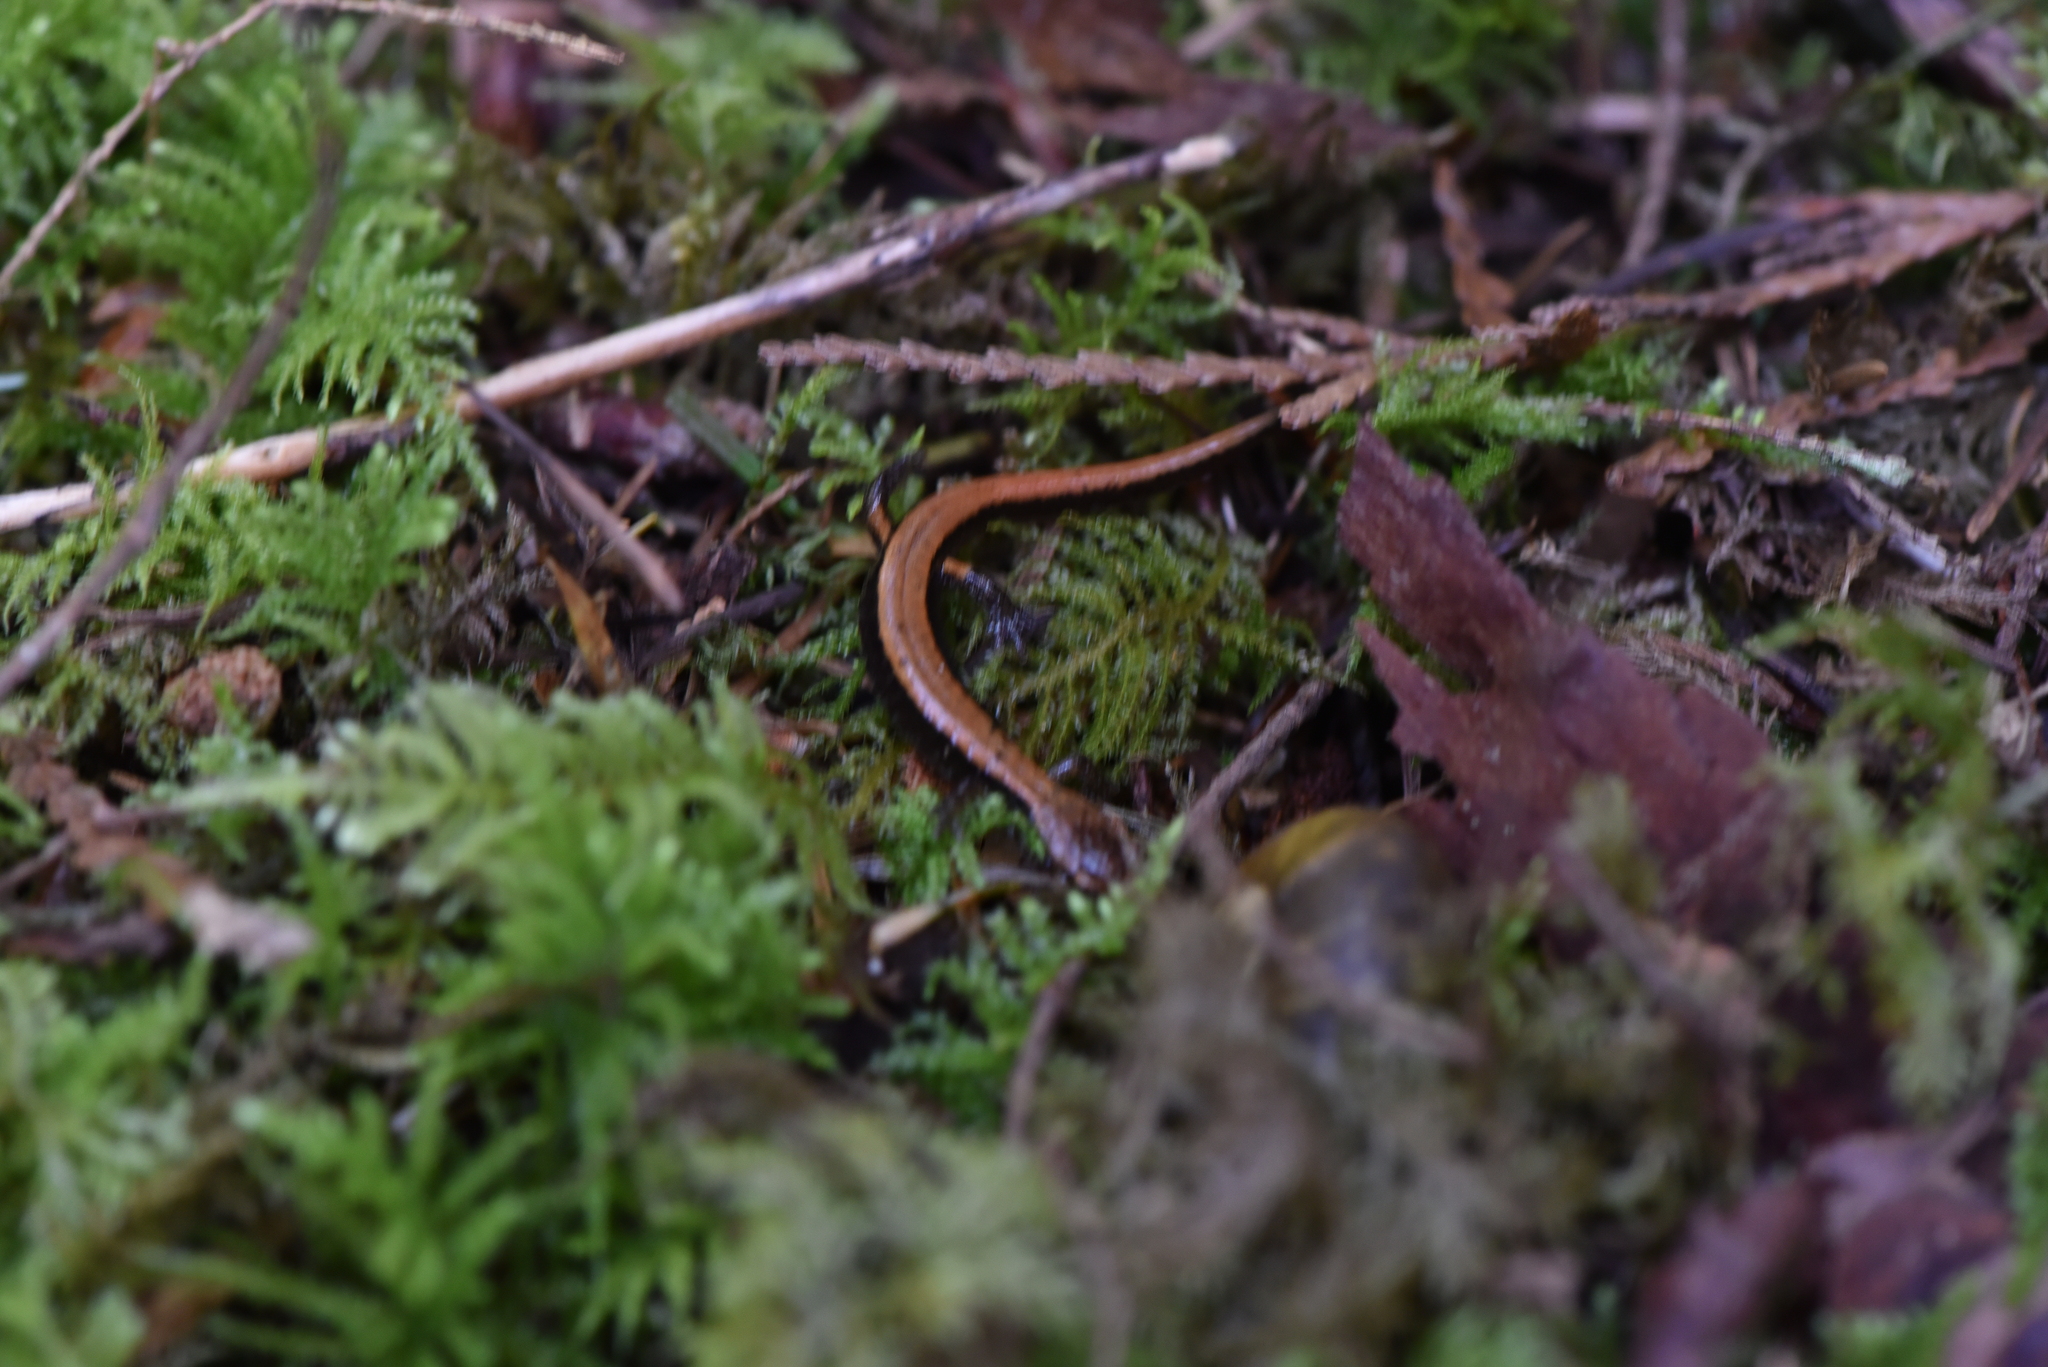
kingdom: Animalia
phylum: Chordata
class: Amphibia
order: Caudata
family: Plethodontidae
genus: Plethodon
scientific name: Plethodon vehiculum
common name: Western red-backed salamander
